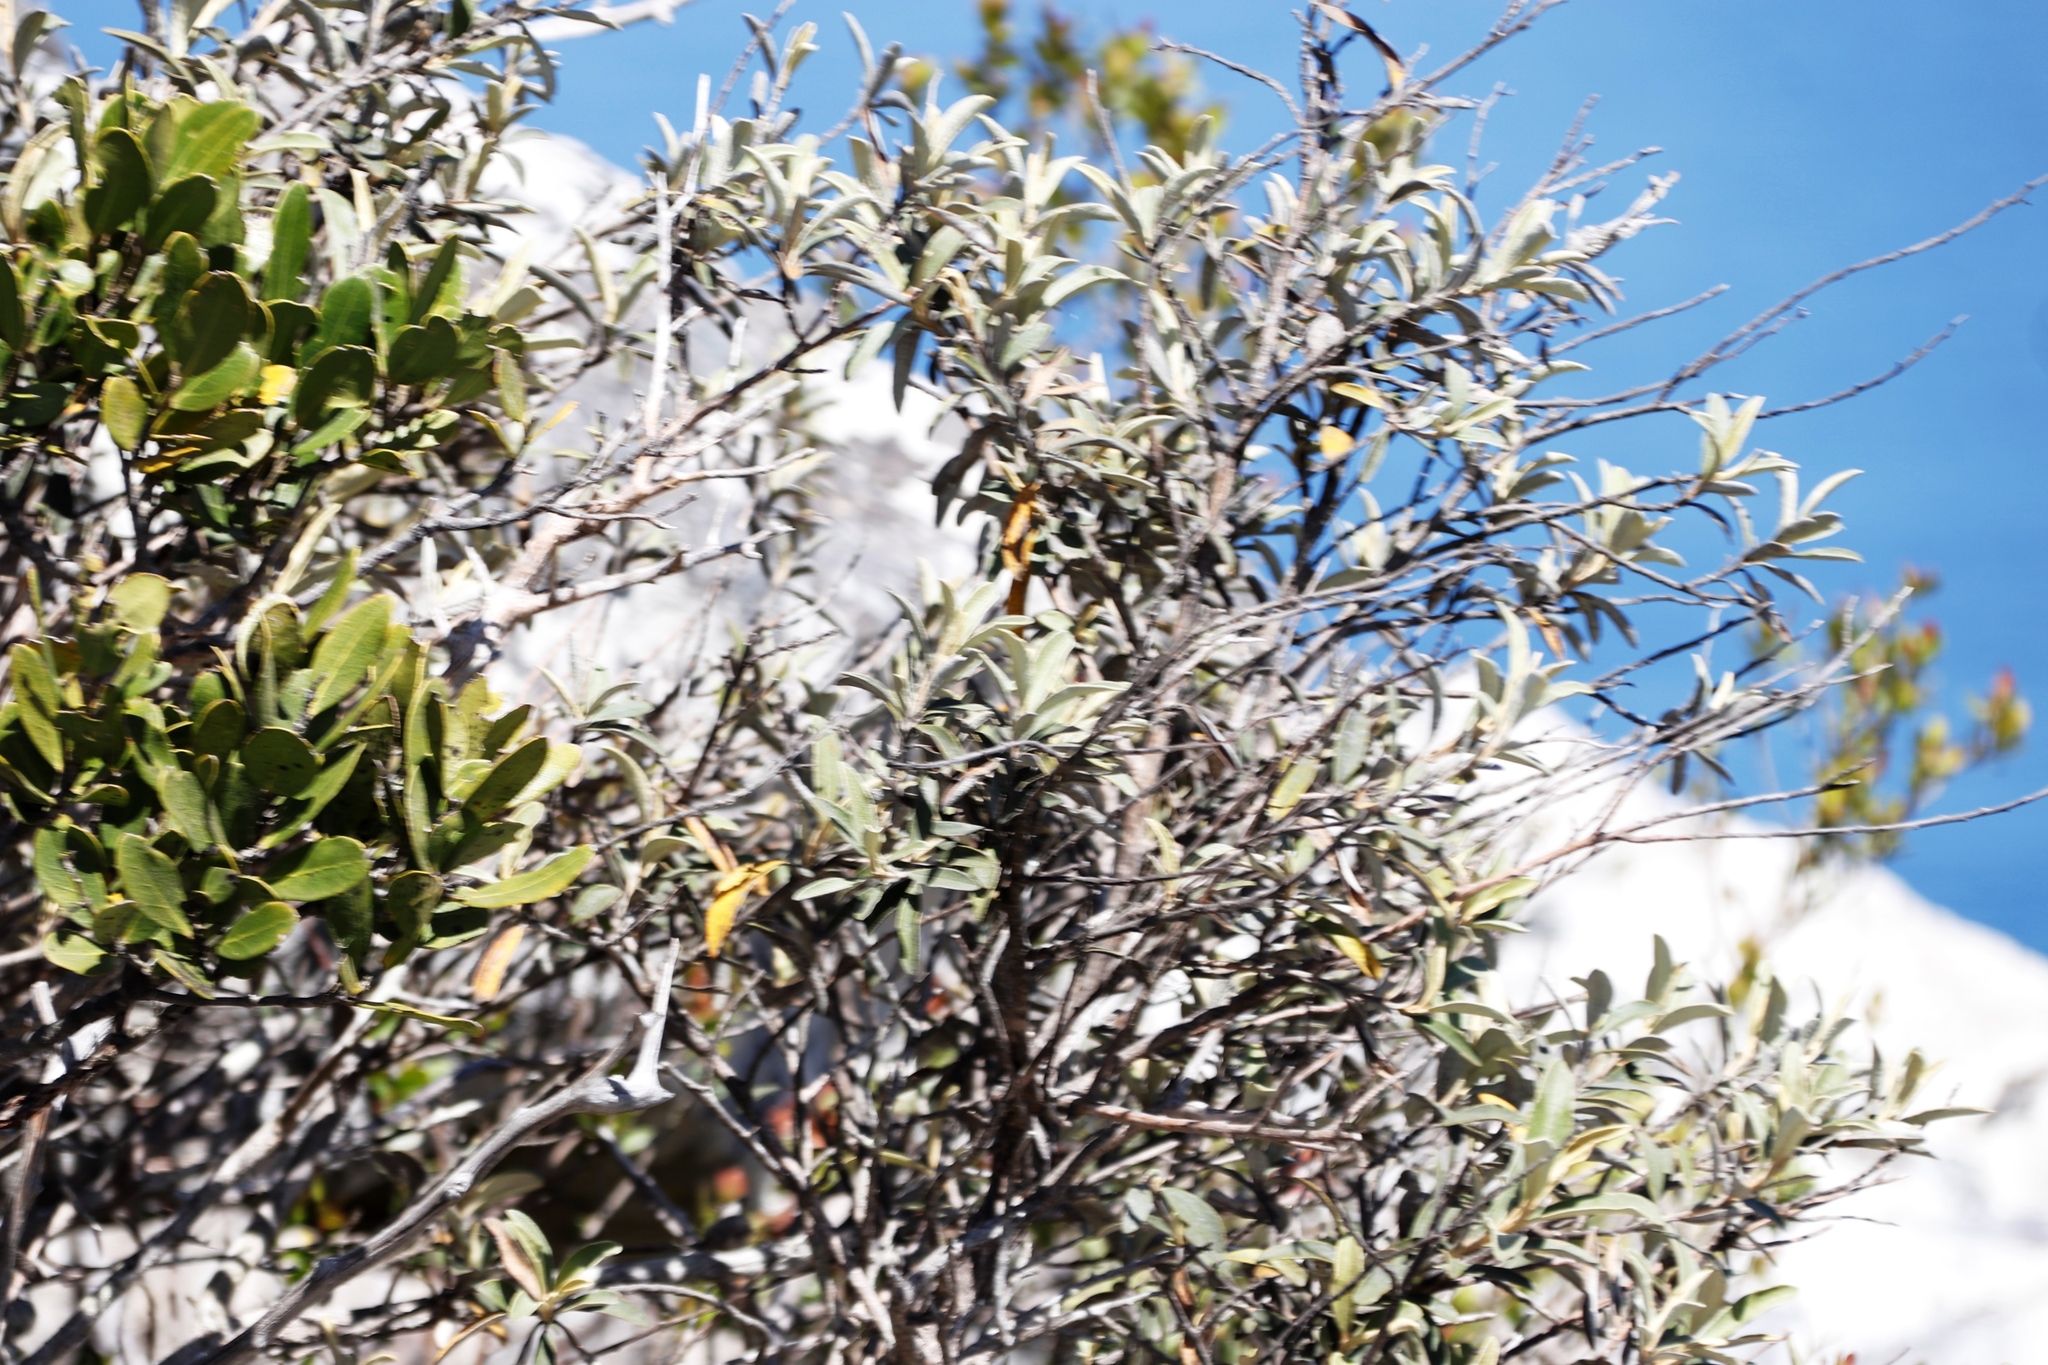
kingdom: Plantae
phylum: Tracheophyta
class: Magnoliopsida
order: Asterales
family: Asteraceae
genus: Tarchonanthus
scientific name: Tarchonanthus littoralis
